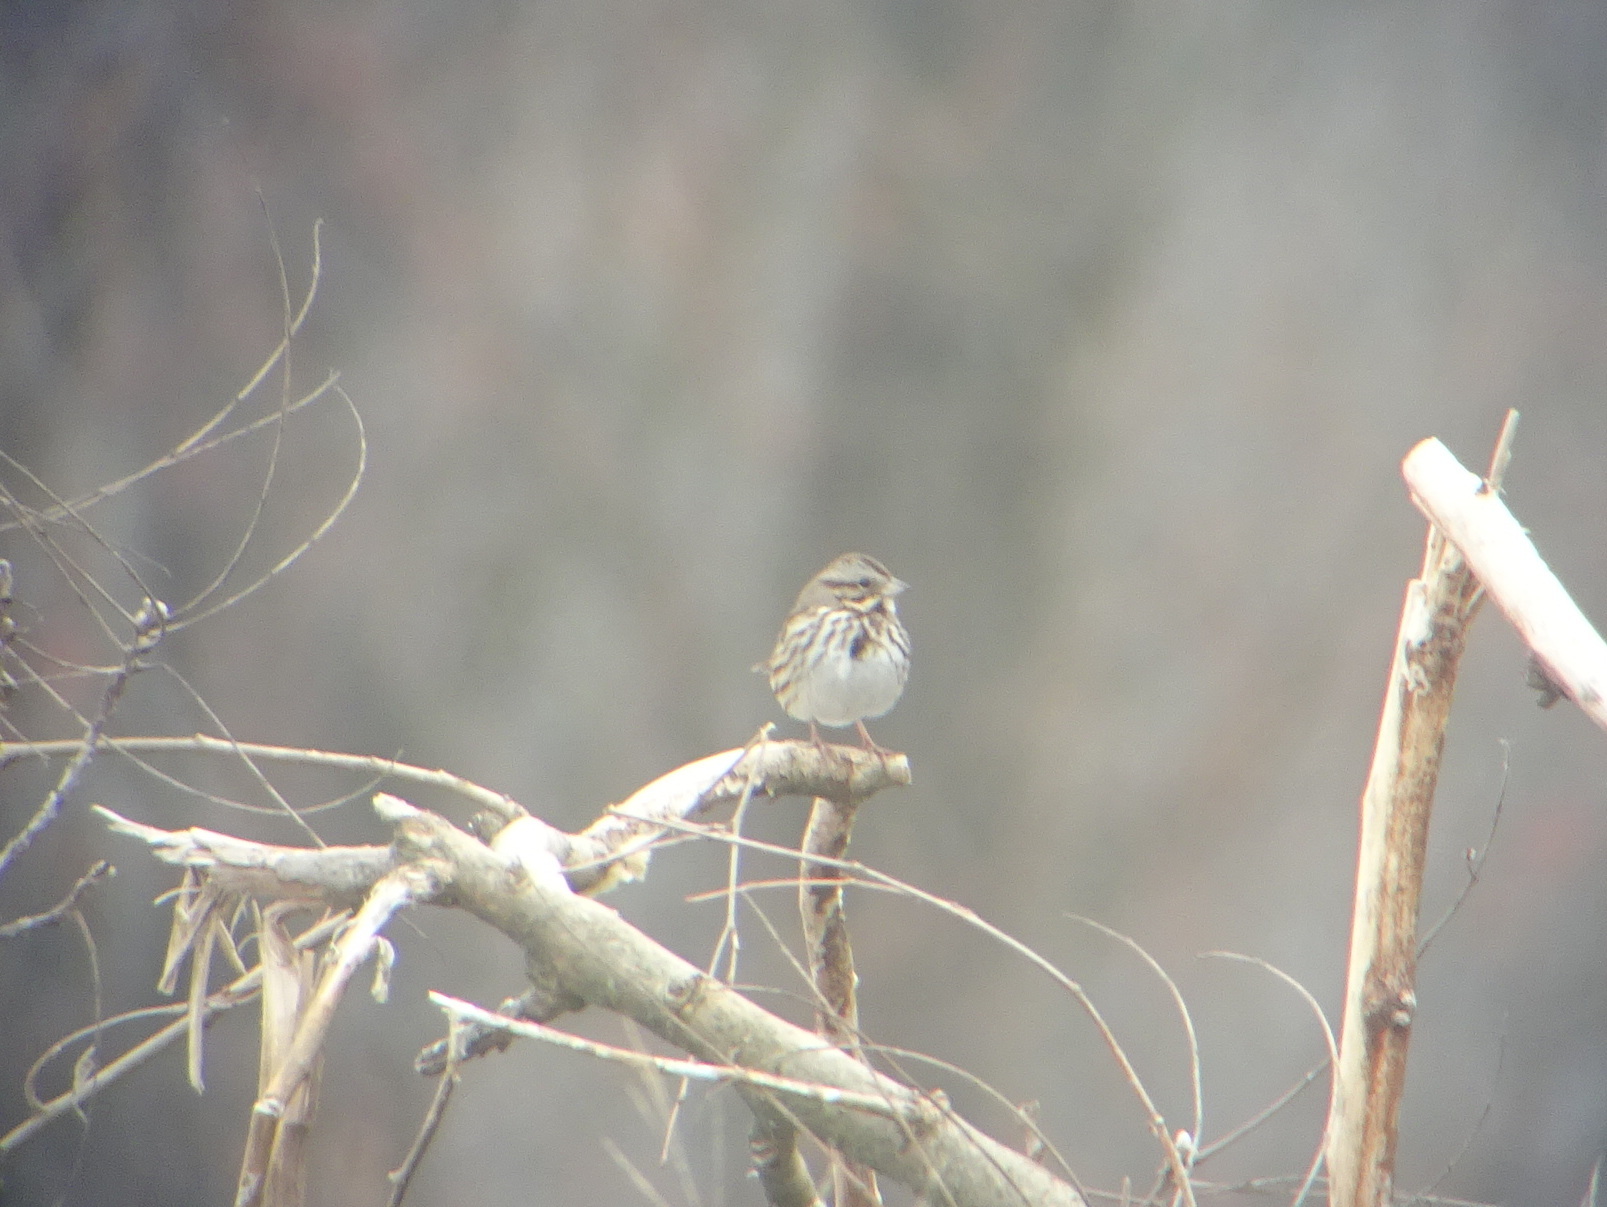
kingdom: Animalia
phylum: Chordata
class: Aves
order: Passeriformes
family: Passerellidae
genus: Melospiza
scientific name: Melospiza melodia
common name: Song sparrow
